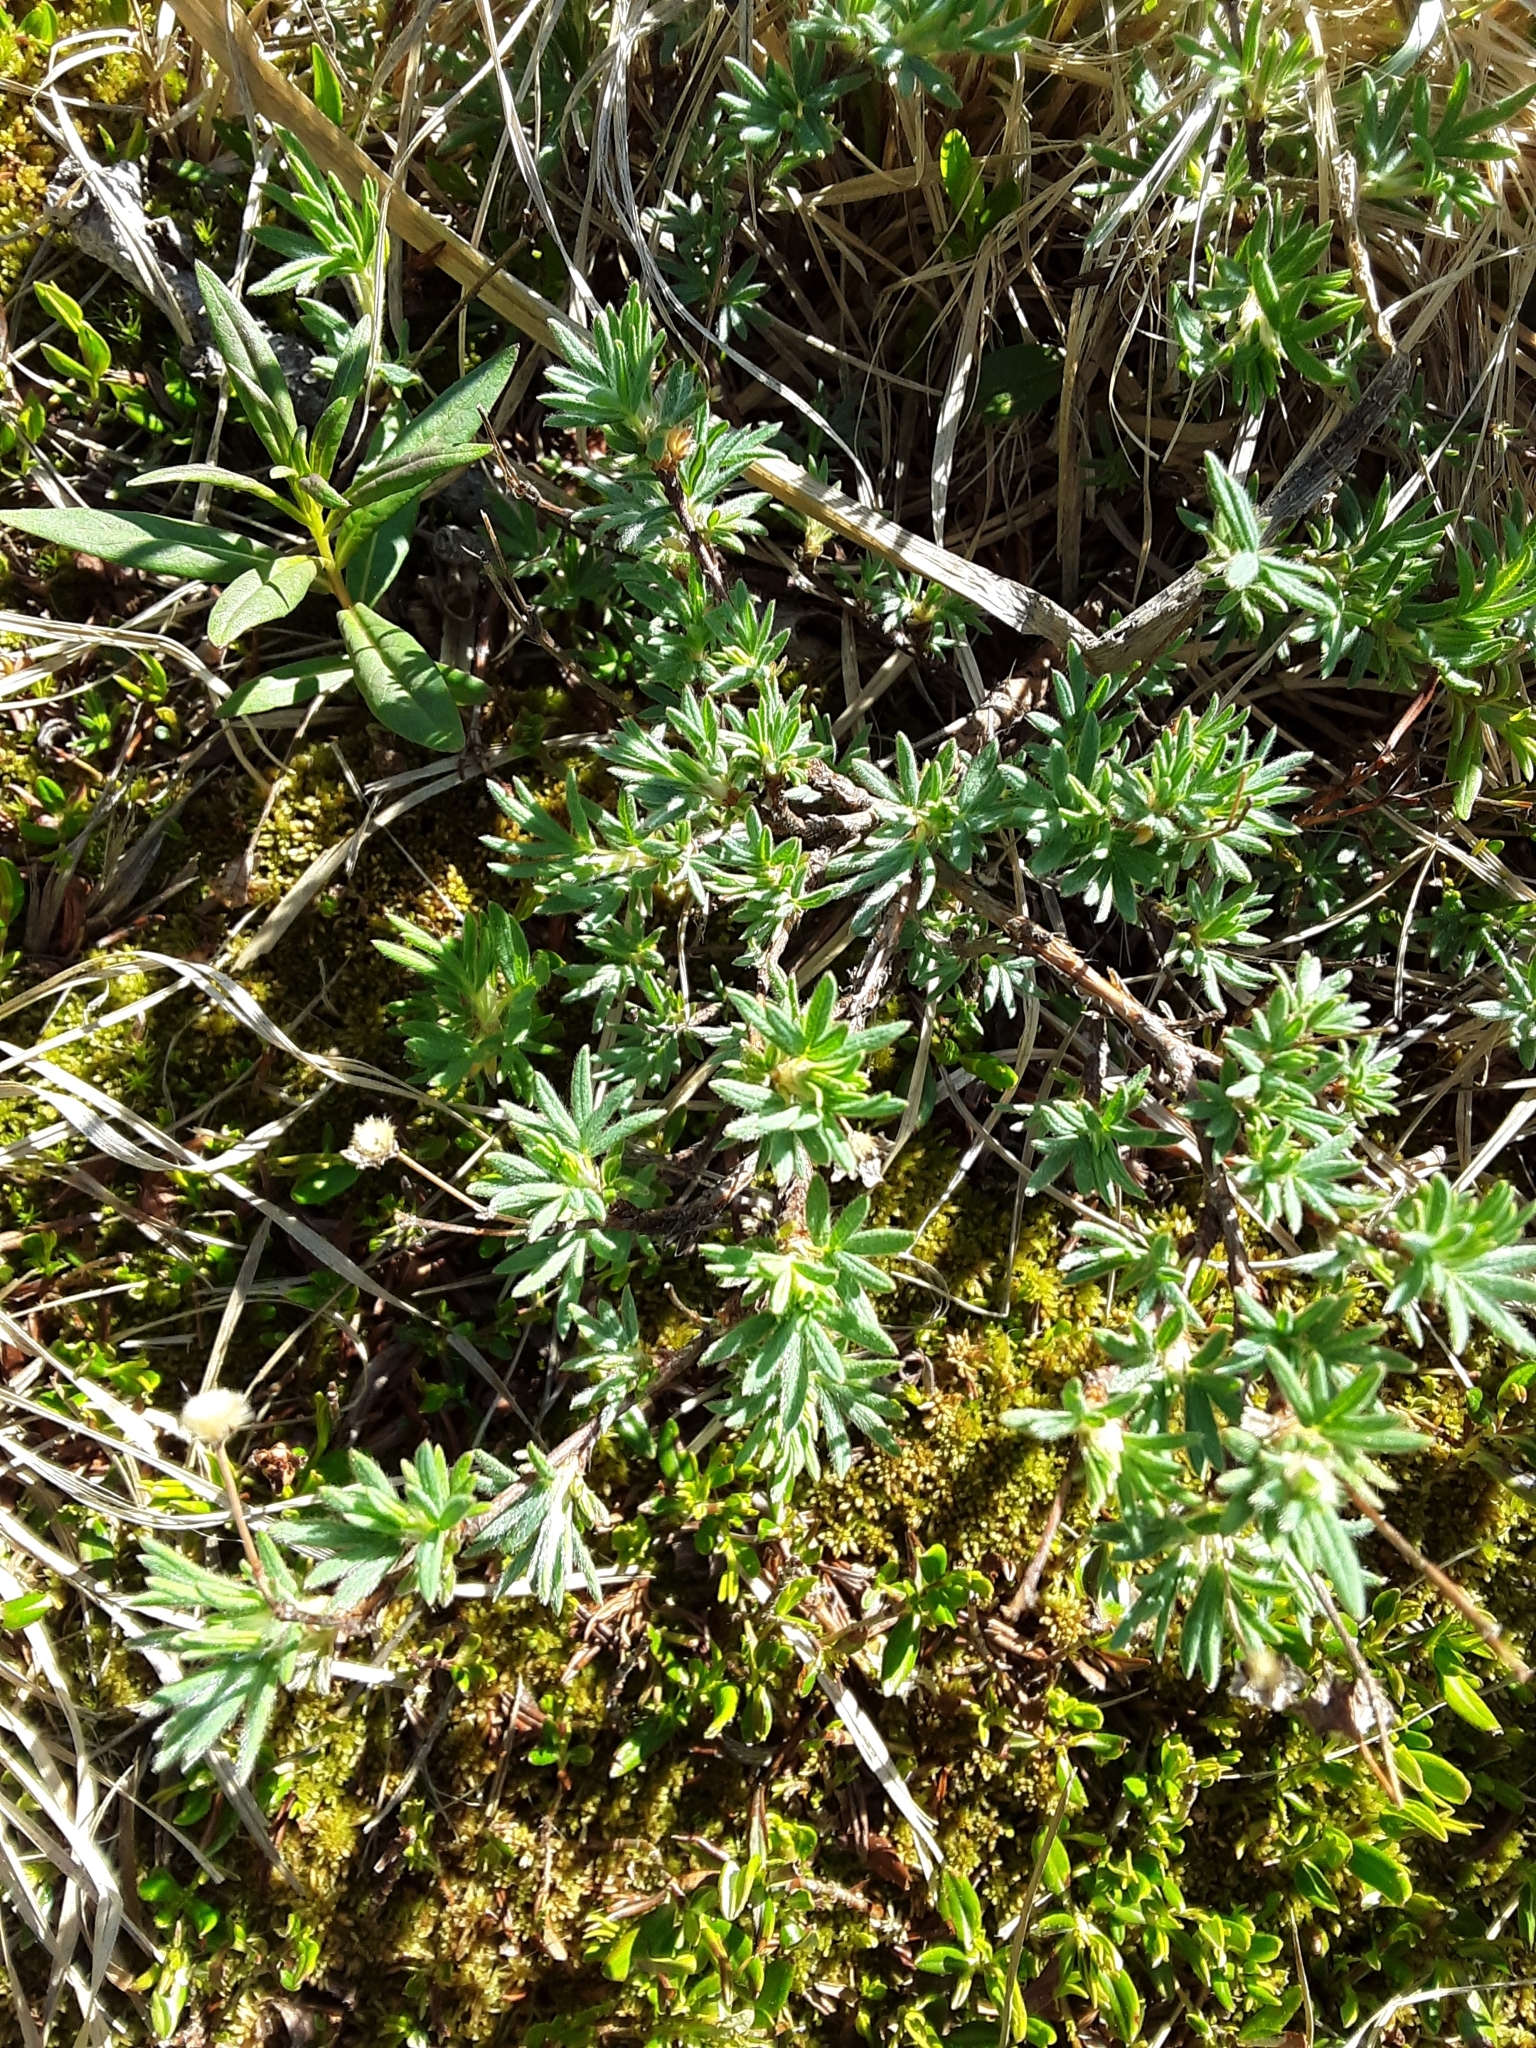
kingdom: Plantae
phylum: Tracheophyta
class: Magnoliopsida
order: Rosales
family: Rosaceae
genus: Dasiphora
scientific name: Dasiphora fruticosa
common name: Shrubby cinquefoil
